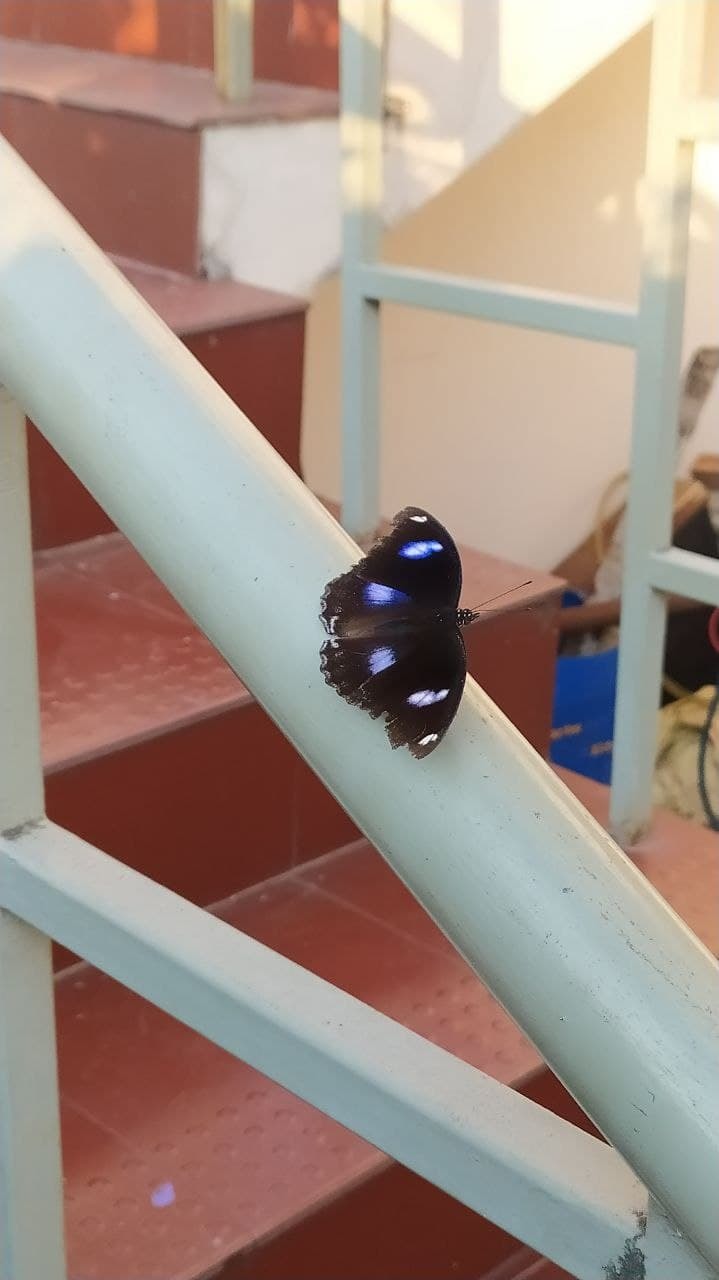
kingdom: Animalia
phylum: Arthropoda
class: Insecta
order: Lepidoptera
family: Nymphalidae
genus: Hypolimnas
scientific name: Hypolimnas bolina
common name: Great eggfly
